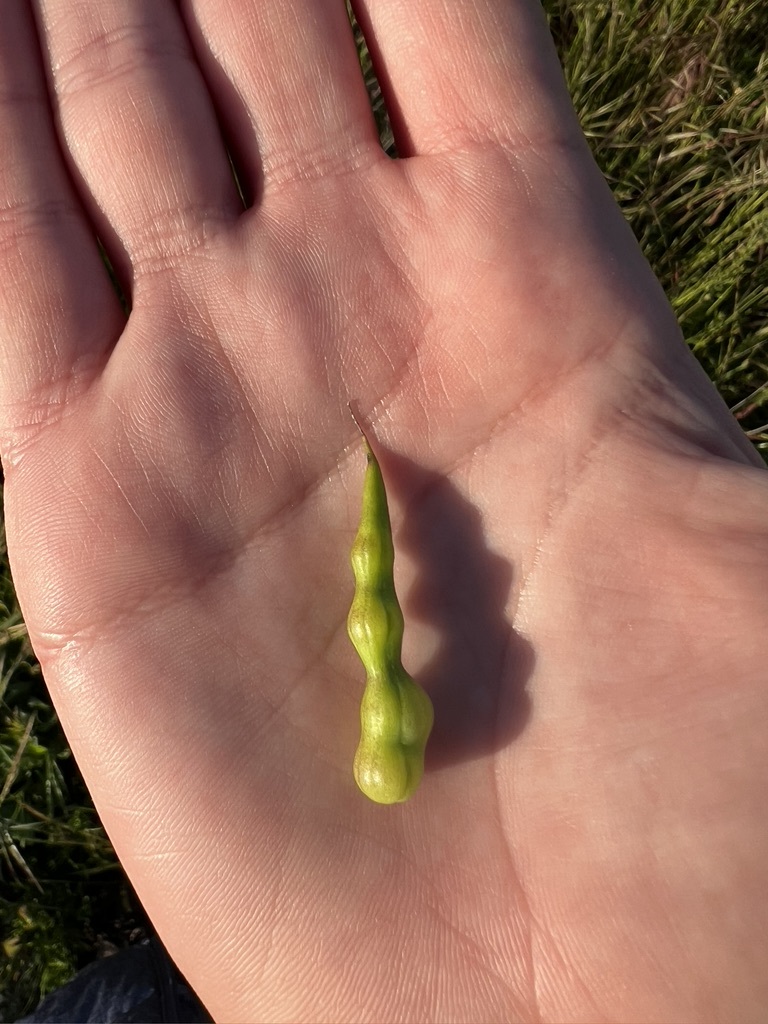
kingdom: Plantae
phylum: Tracheophyta
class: Magnoliopsida
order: Brassicales
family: Brassicaceae
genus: Raphanus
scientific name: Raphanus sativus
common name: Cultivated radish
